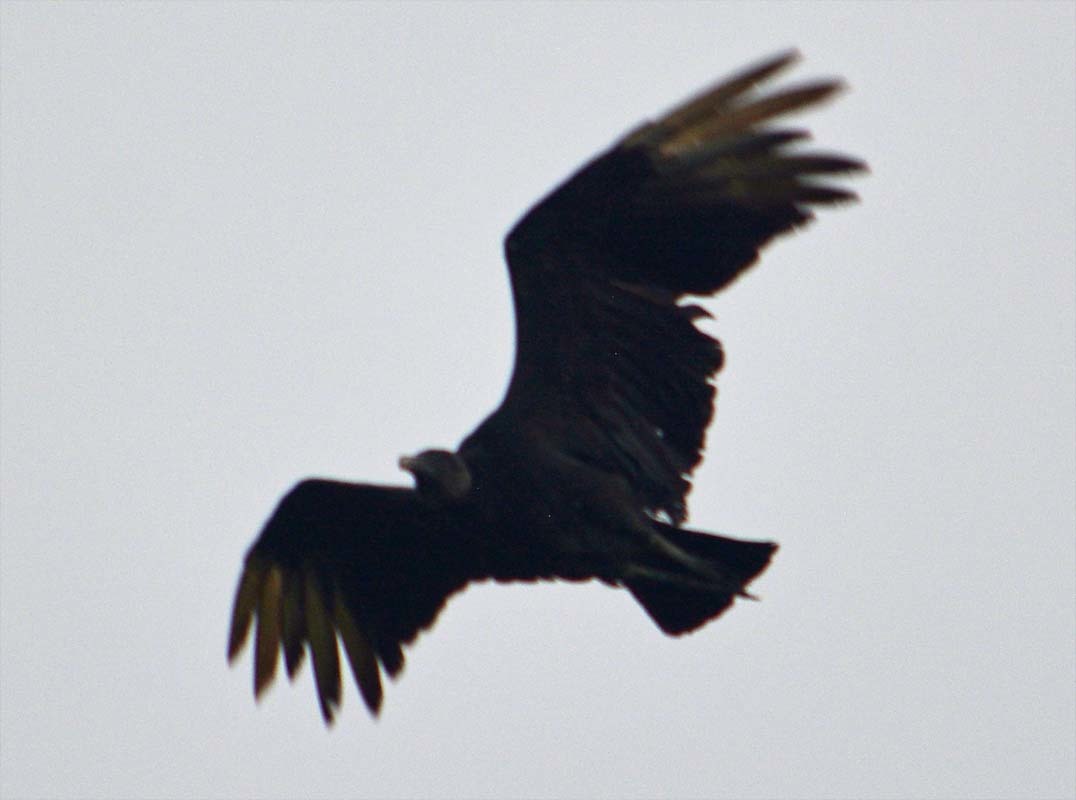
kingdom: Animalia
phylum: Chordata
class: Aves
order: Accipitriformes
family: Cathartidae
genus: Coragyps
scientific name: Coragyps atratus
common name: Black vulture
